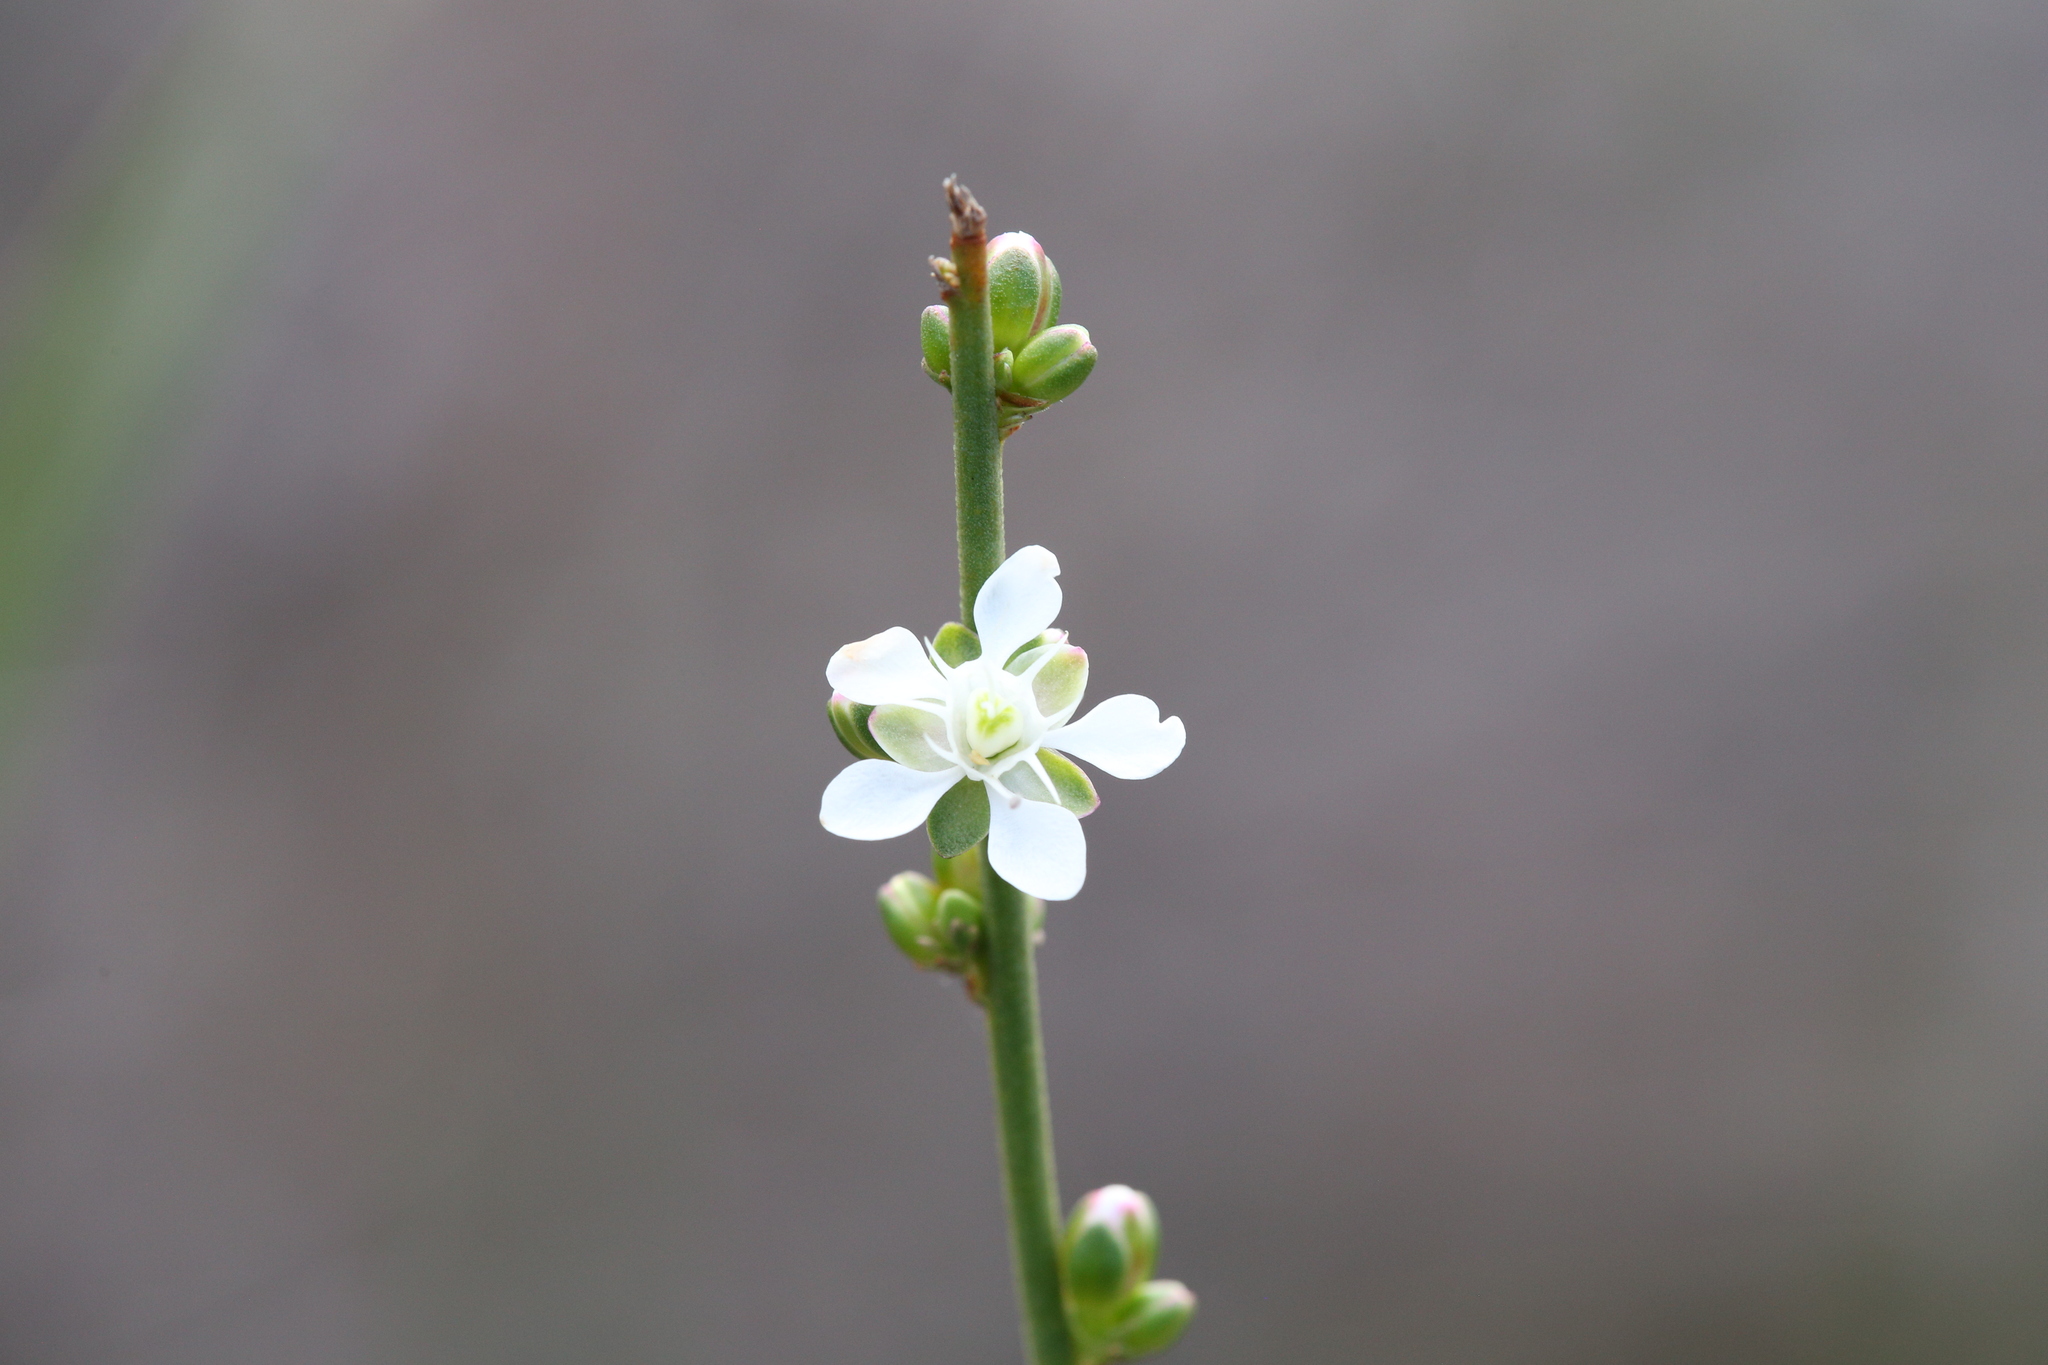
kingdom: Plantae
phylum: Tracheophyta
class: Magnoliopsida
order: Caryophyllales
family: Macarthuriaceae
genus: Macarthuria
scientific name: Macarthuria australis
